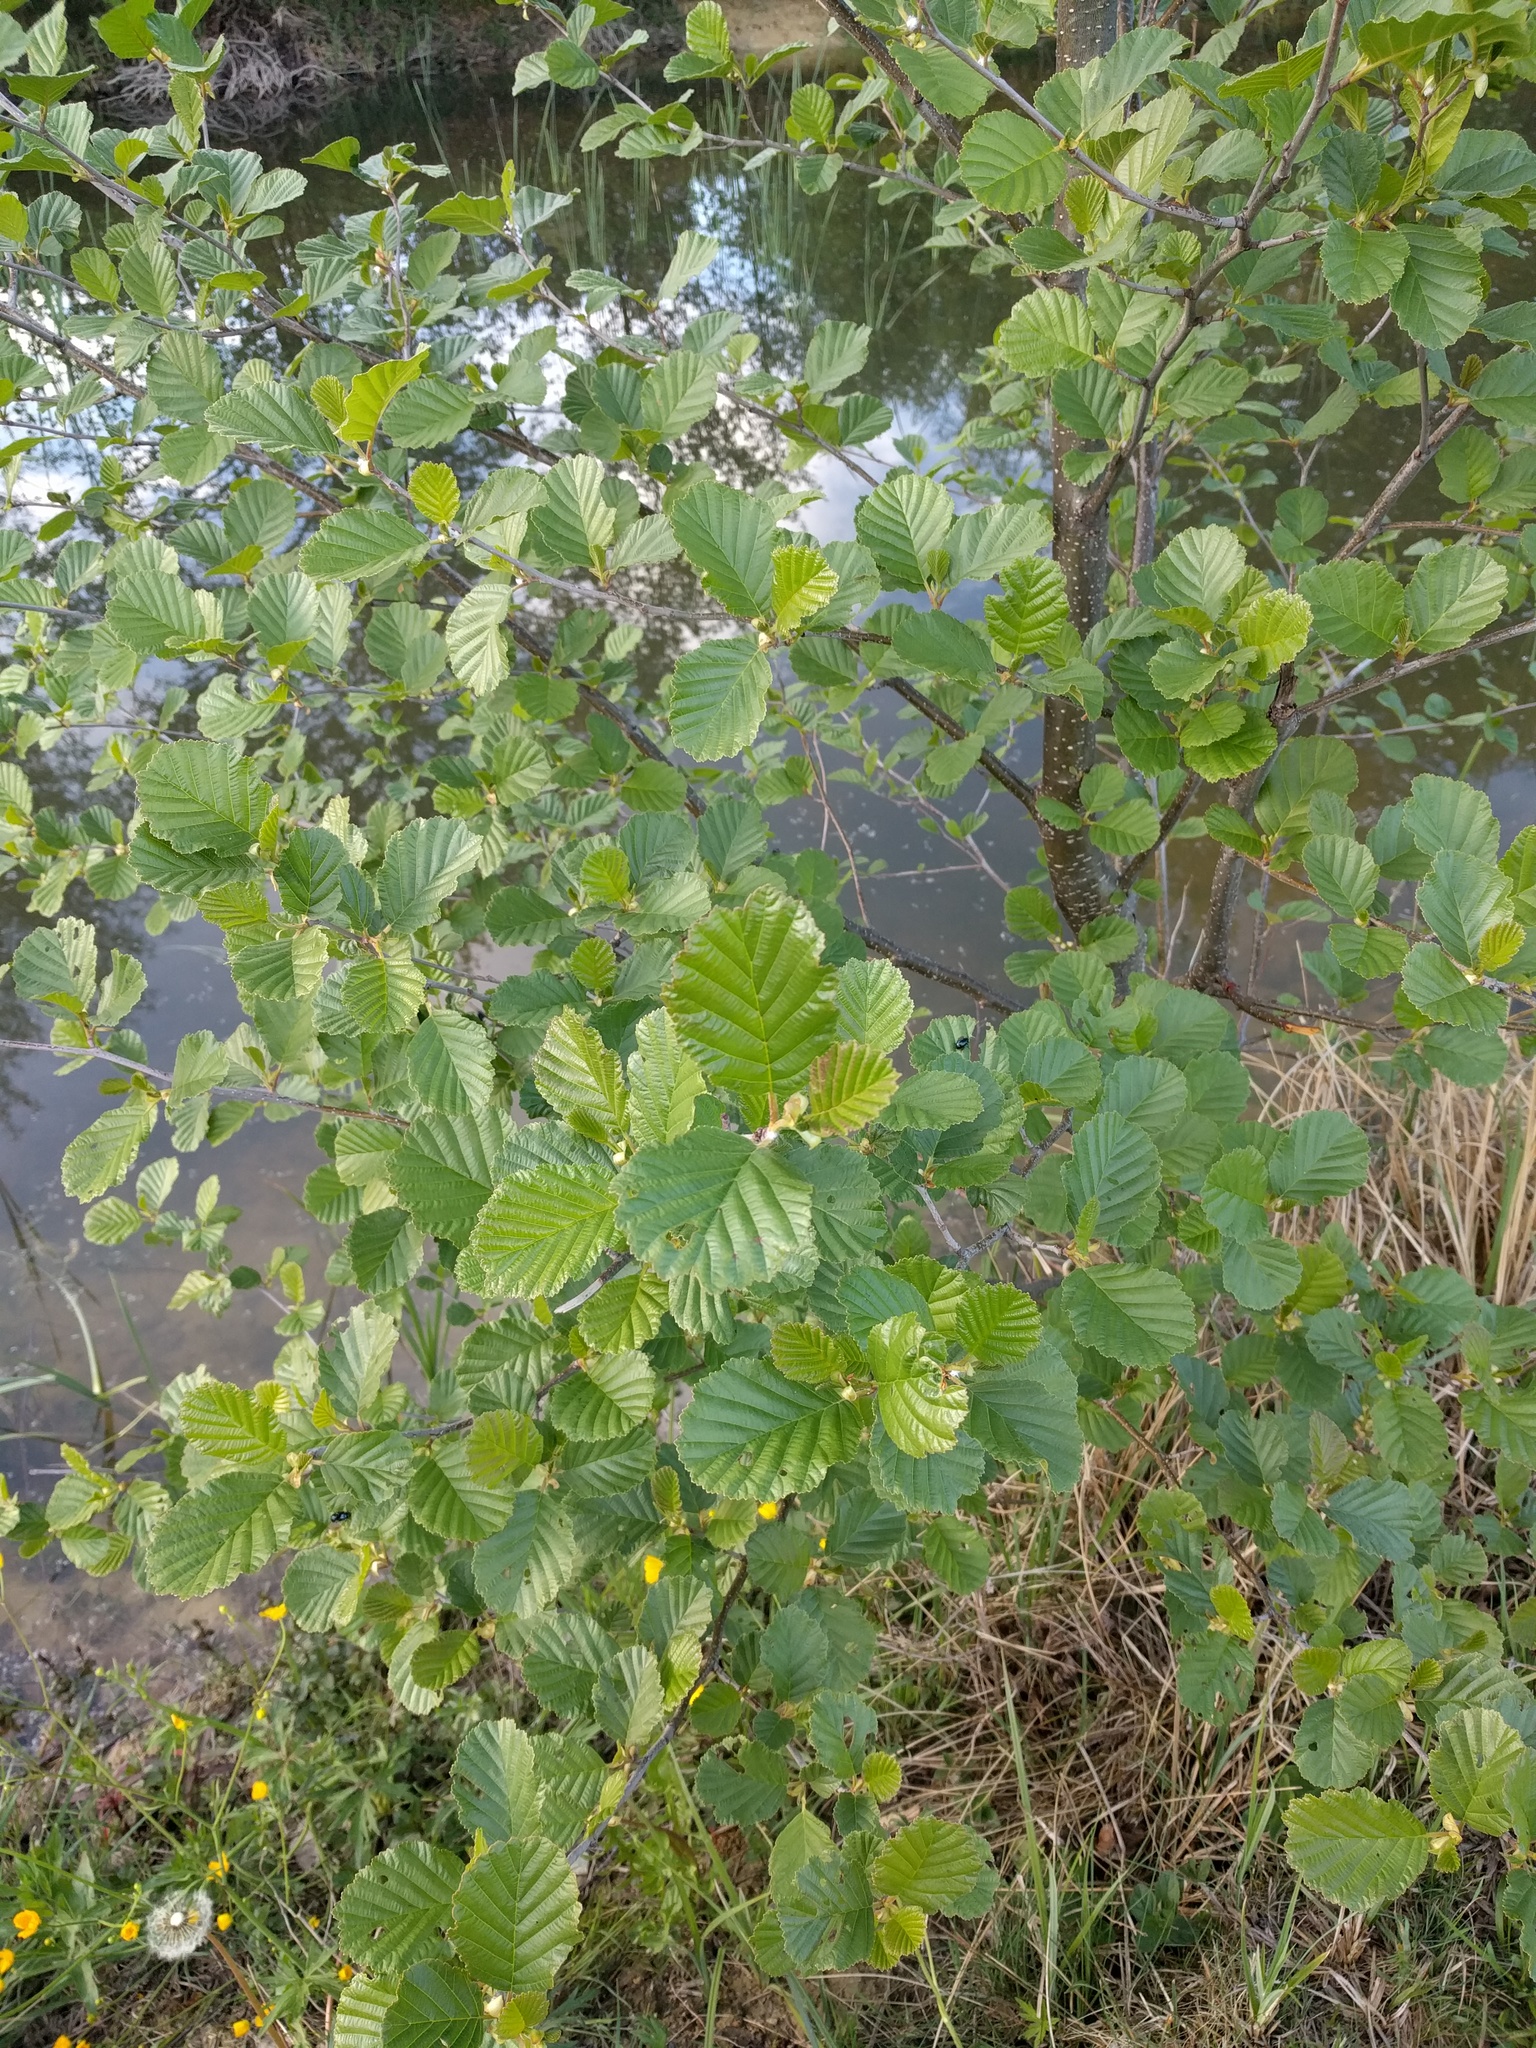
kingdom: Plantae
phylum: Tracheophyta
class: Magnoliopsida
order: Fagales
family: Betulaceae
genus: Alnus
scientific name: Alnus glutinosa
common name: Black alder
